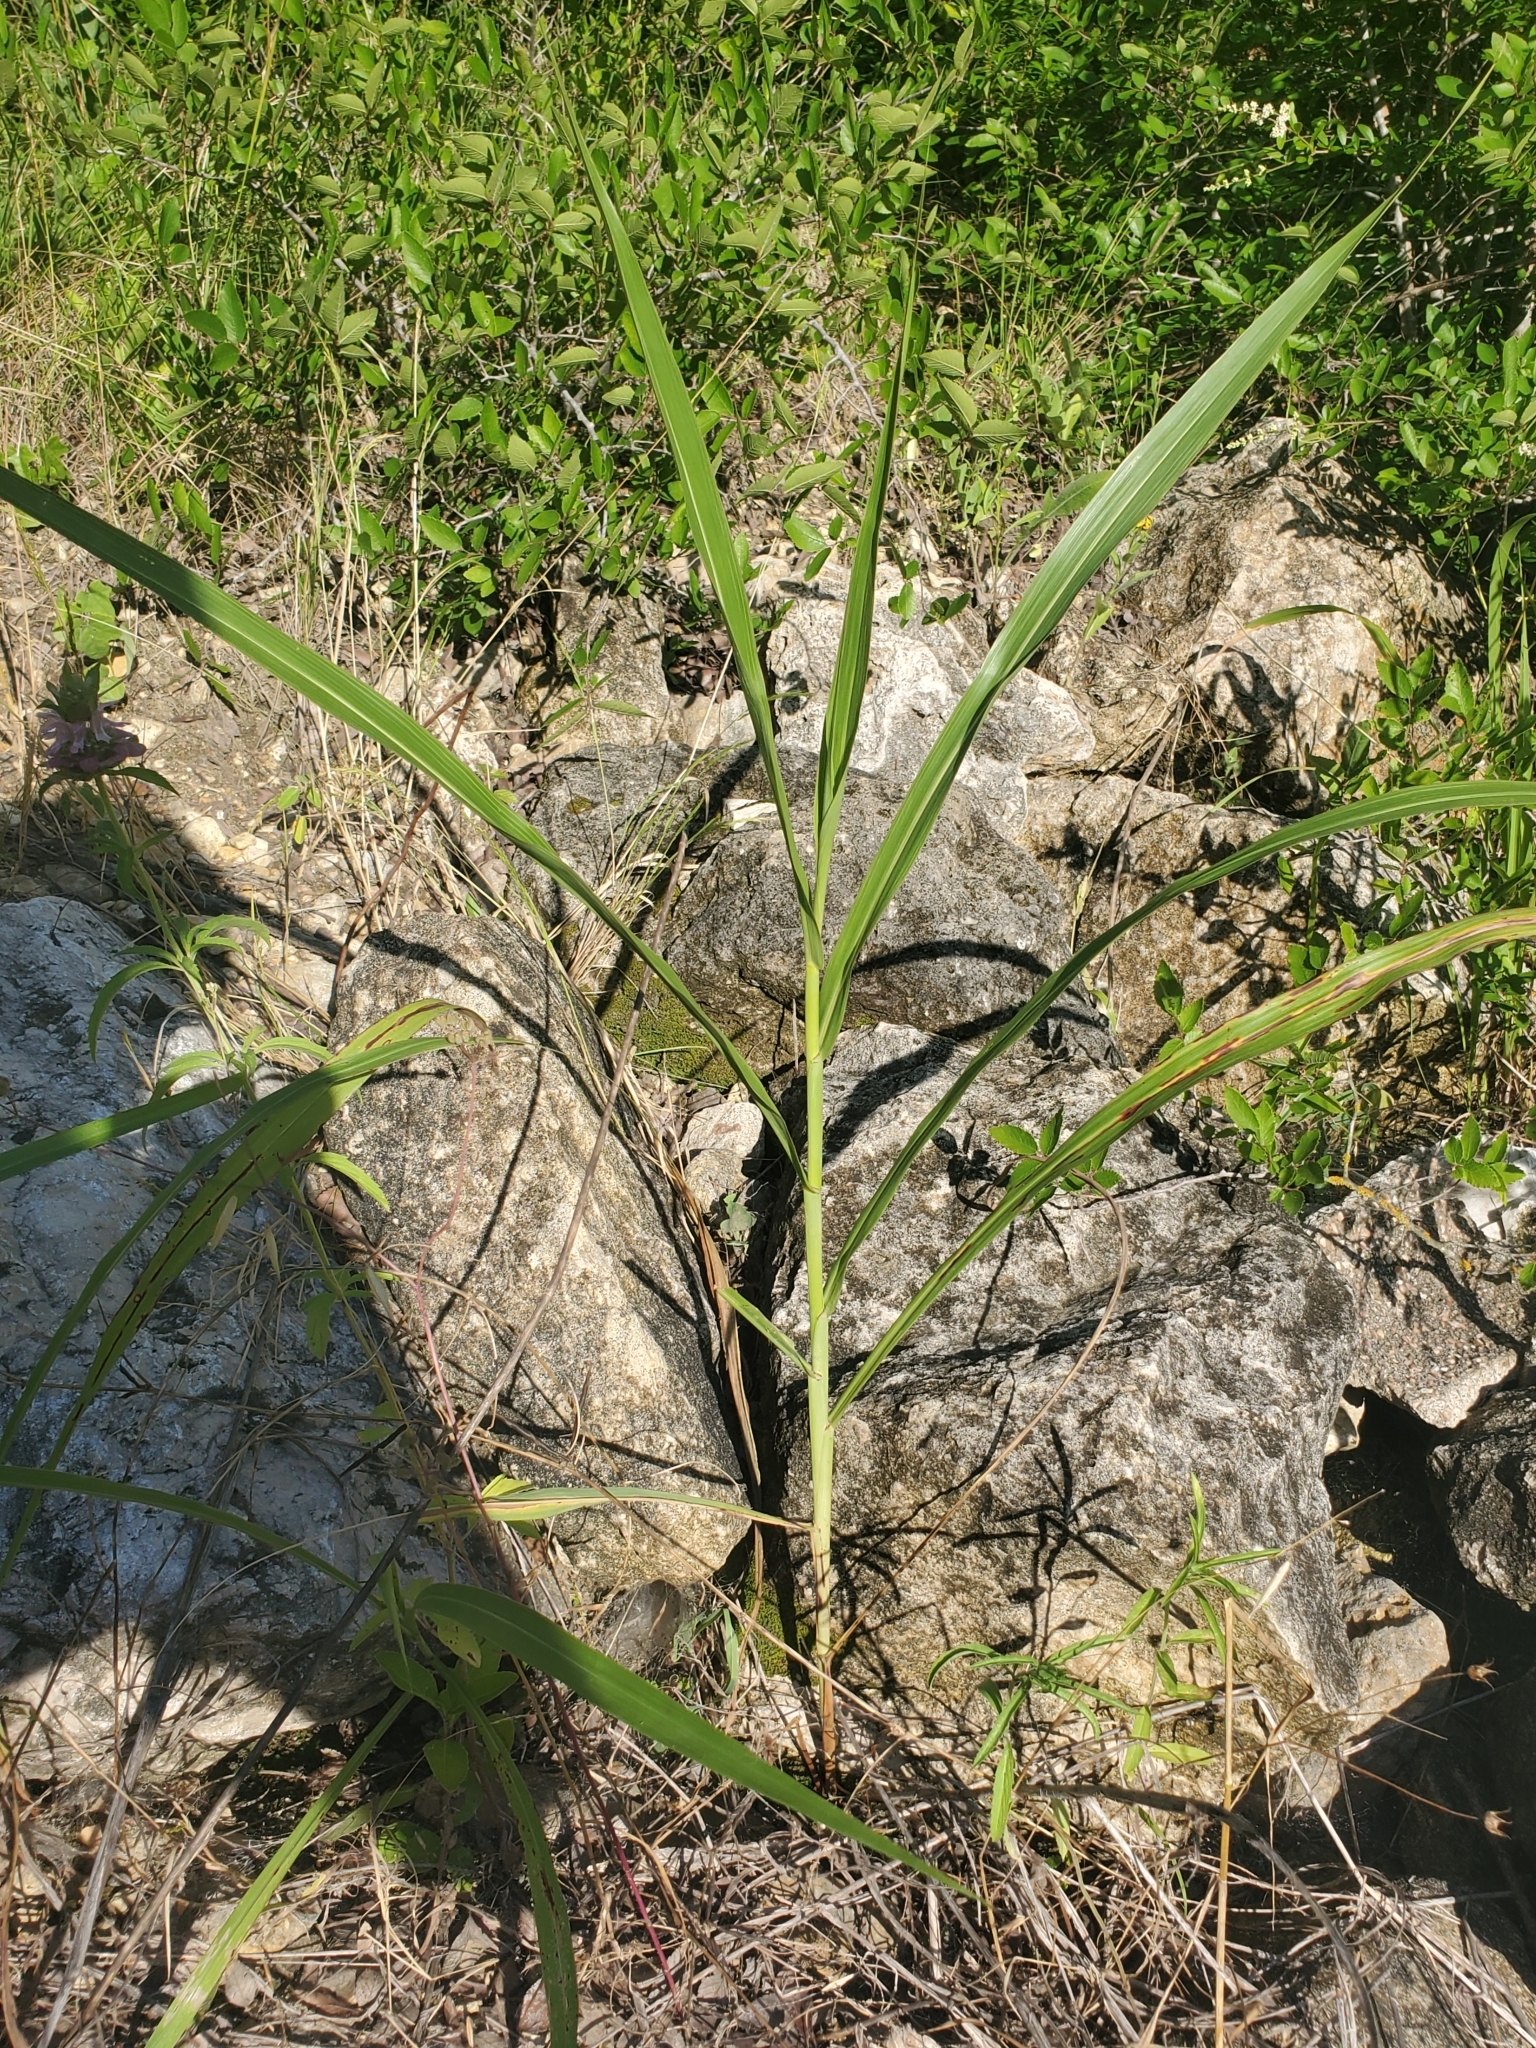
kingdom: Plantae
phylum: Tracheophyta
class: Liliopsida
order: Poales
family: Poaceae
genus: Sorghum
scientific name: Sorghum halepense
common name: Johnson-grass
